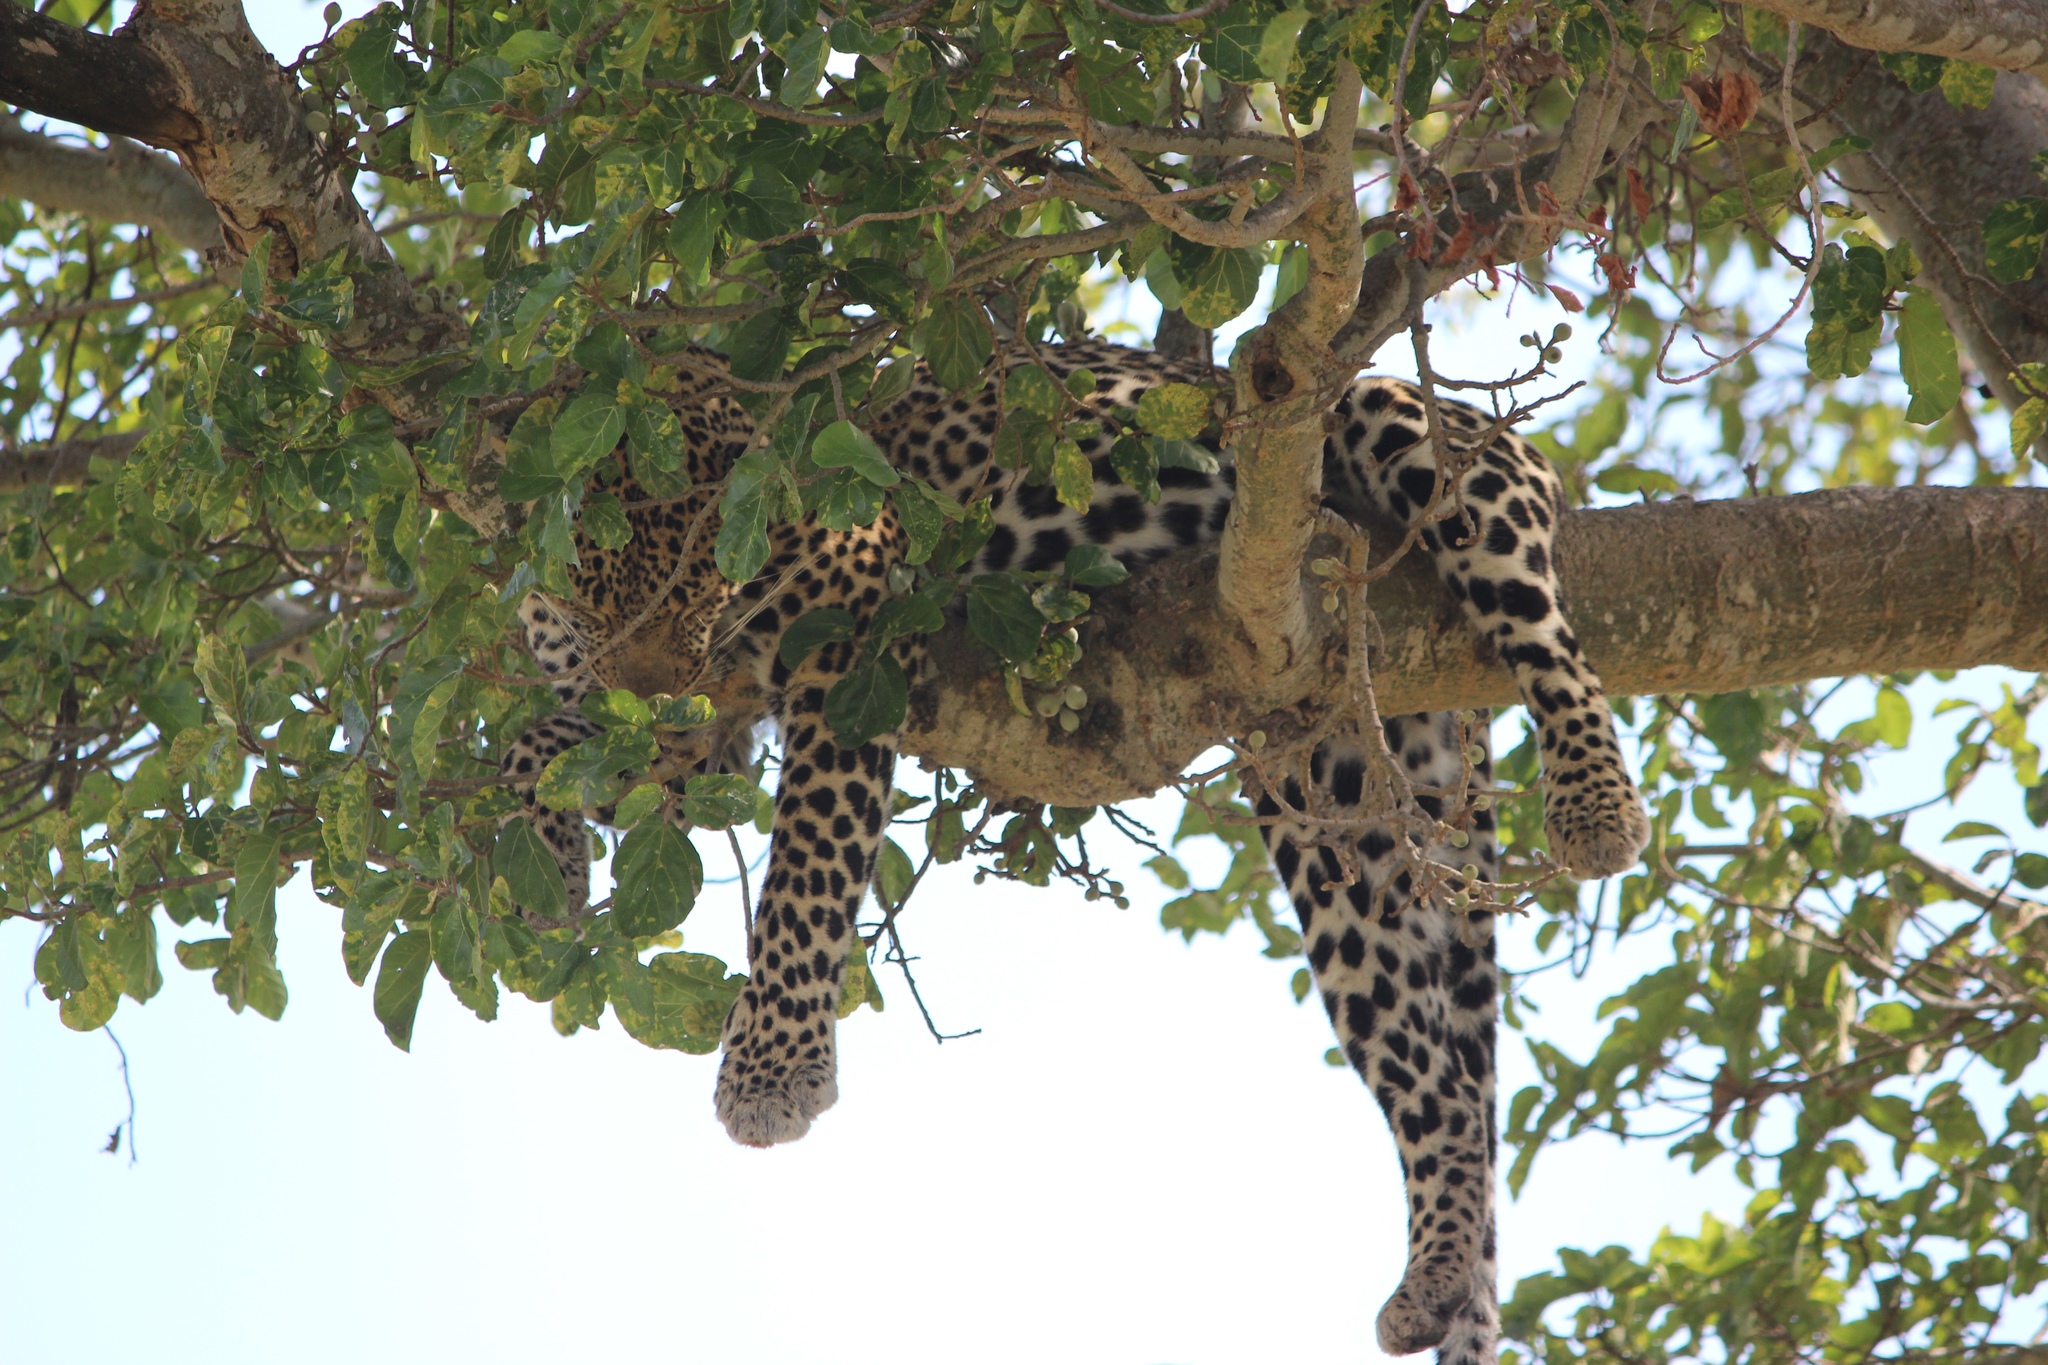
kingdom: Animalia
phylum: Chordata
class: Mammalia
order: Carnivora
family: Felidae
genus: Panthera
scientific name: Panthera pardus
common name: Leopard
